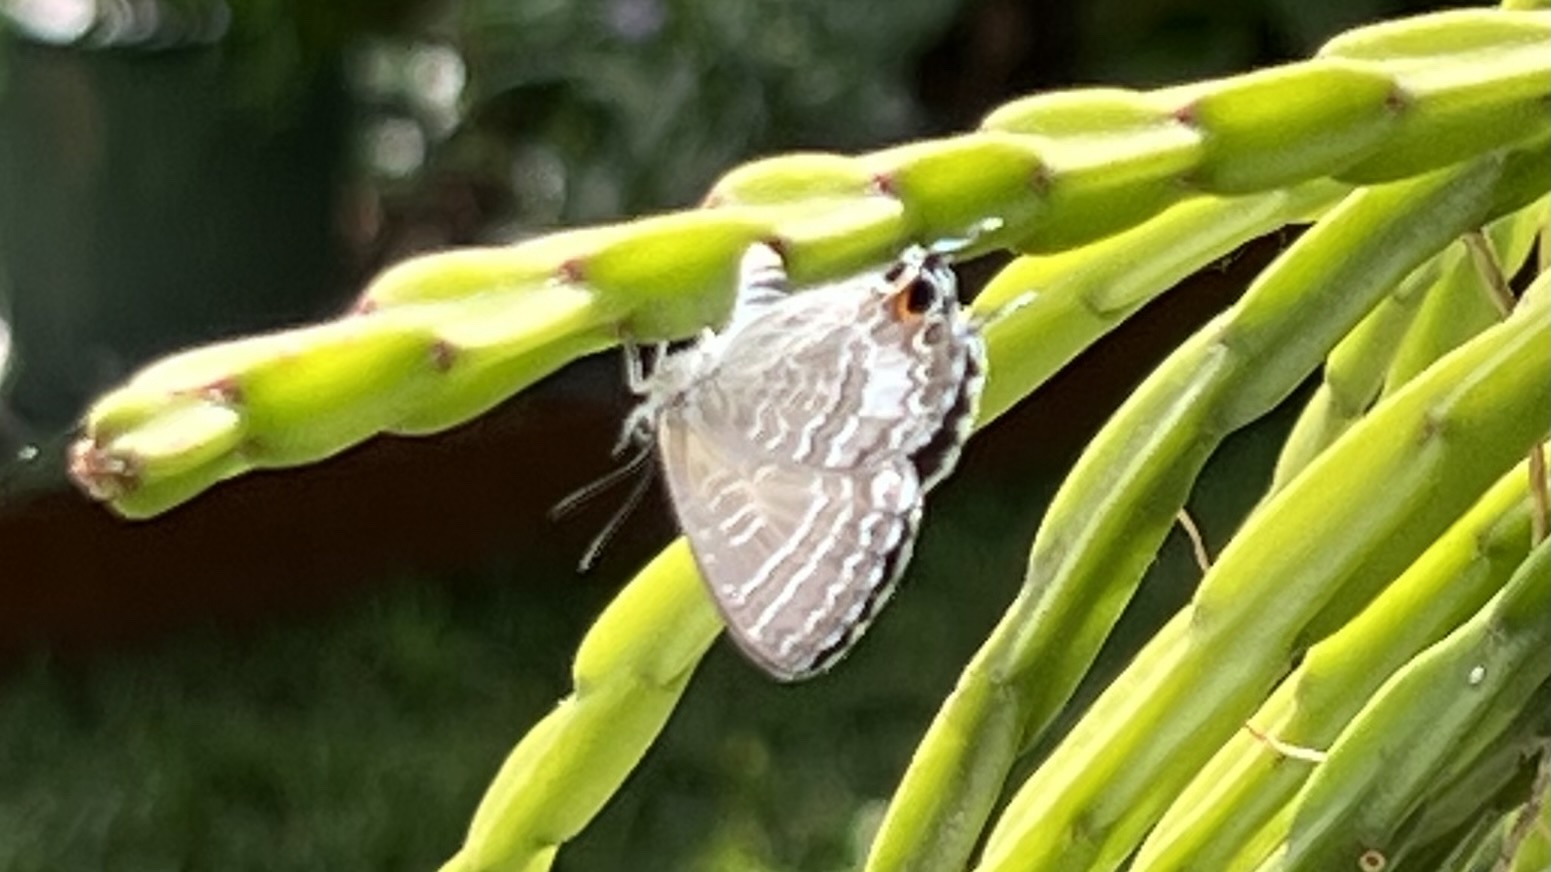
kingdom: Animalia
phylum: Arthropoda
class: Insecta
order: Lepidoptera
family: Lycaenidae
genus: Theclinesthes
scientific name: Theclinesthes onycha
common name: Cycad blue
